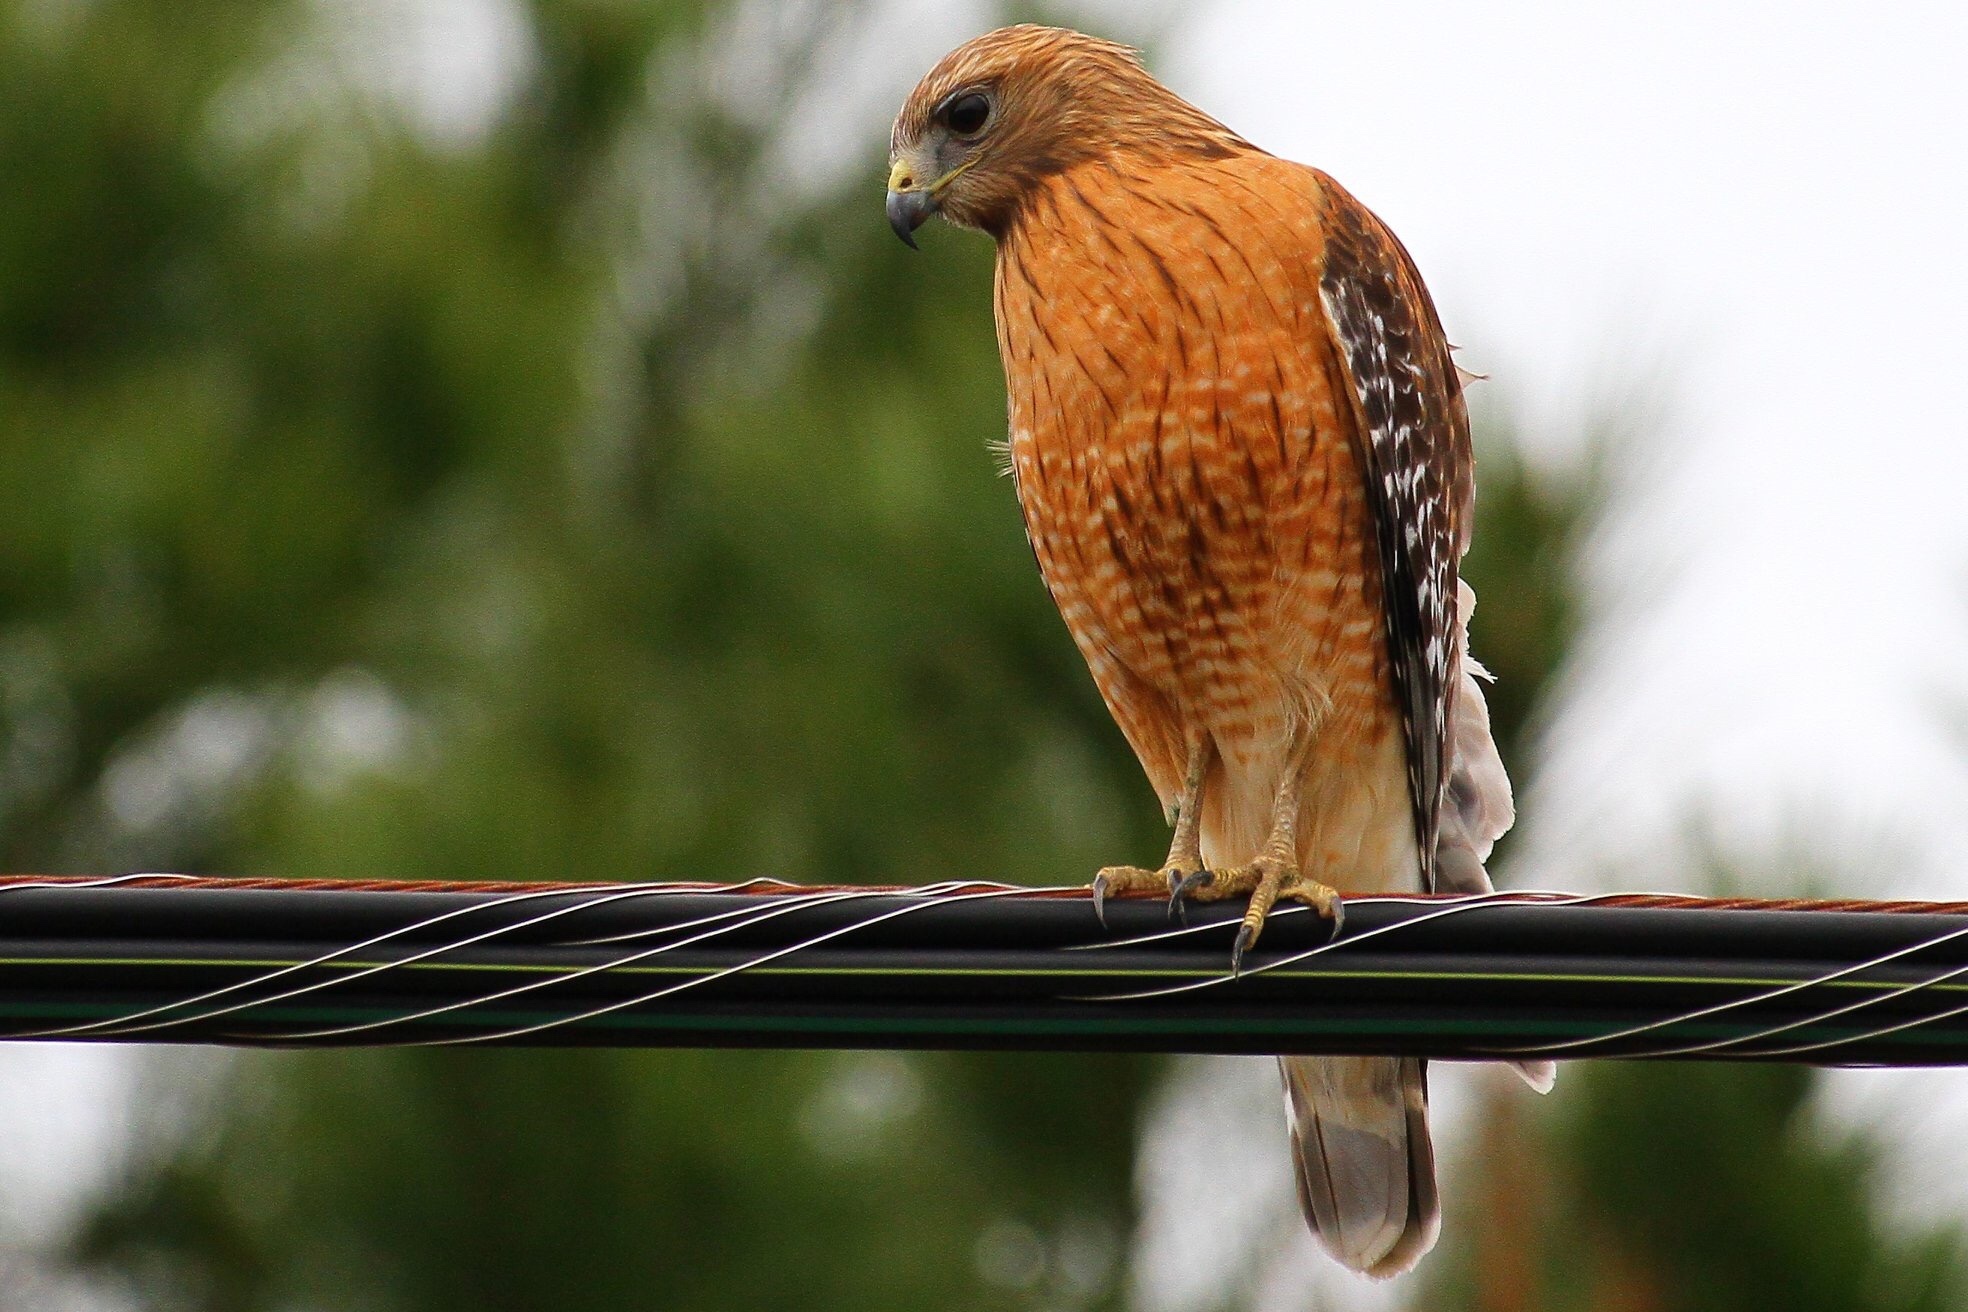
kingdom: Animalia
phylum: Chordata
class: Aves
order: Accipitriformes
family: Accipitridae
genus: Buteo
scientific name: Buteo lineatus
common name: Red-shouldered hawk
